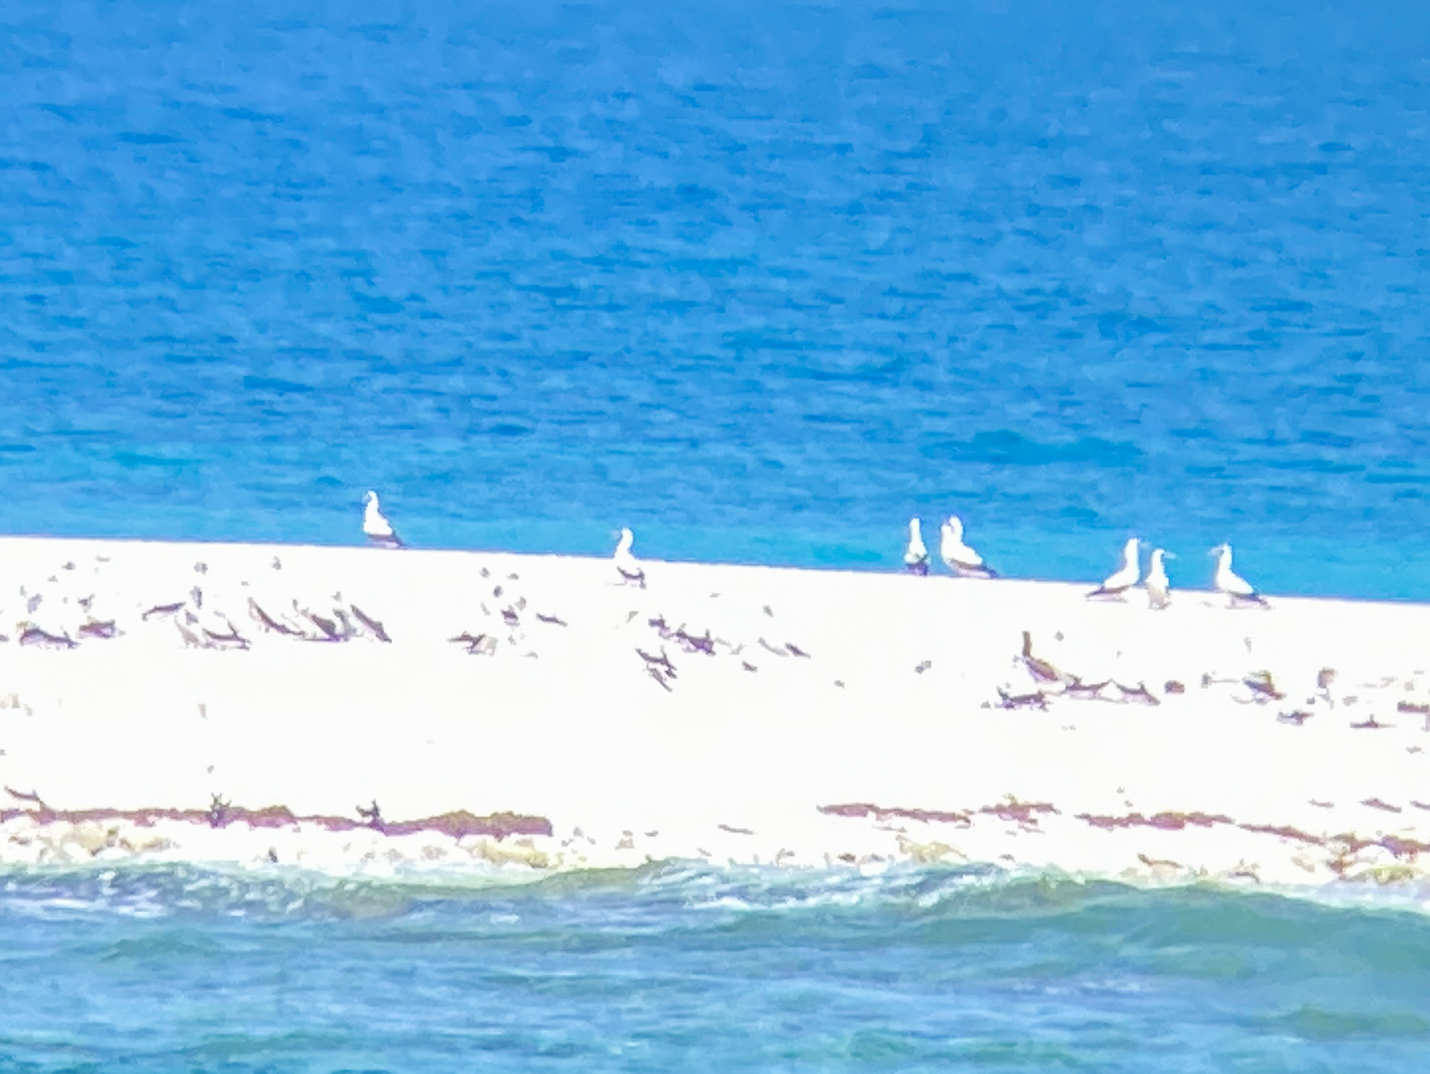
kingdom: Animalia
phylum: Chordata
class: Aves
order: Suliformes
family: Sulidae
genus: Sula
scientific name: Sula dactylatra
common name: Masked booby
